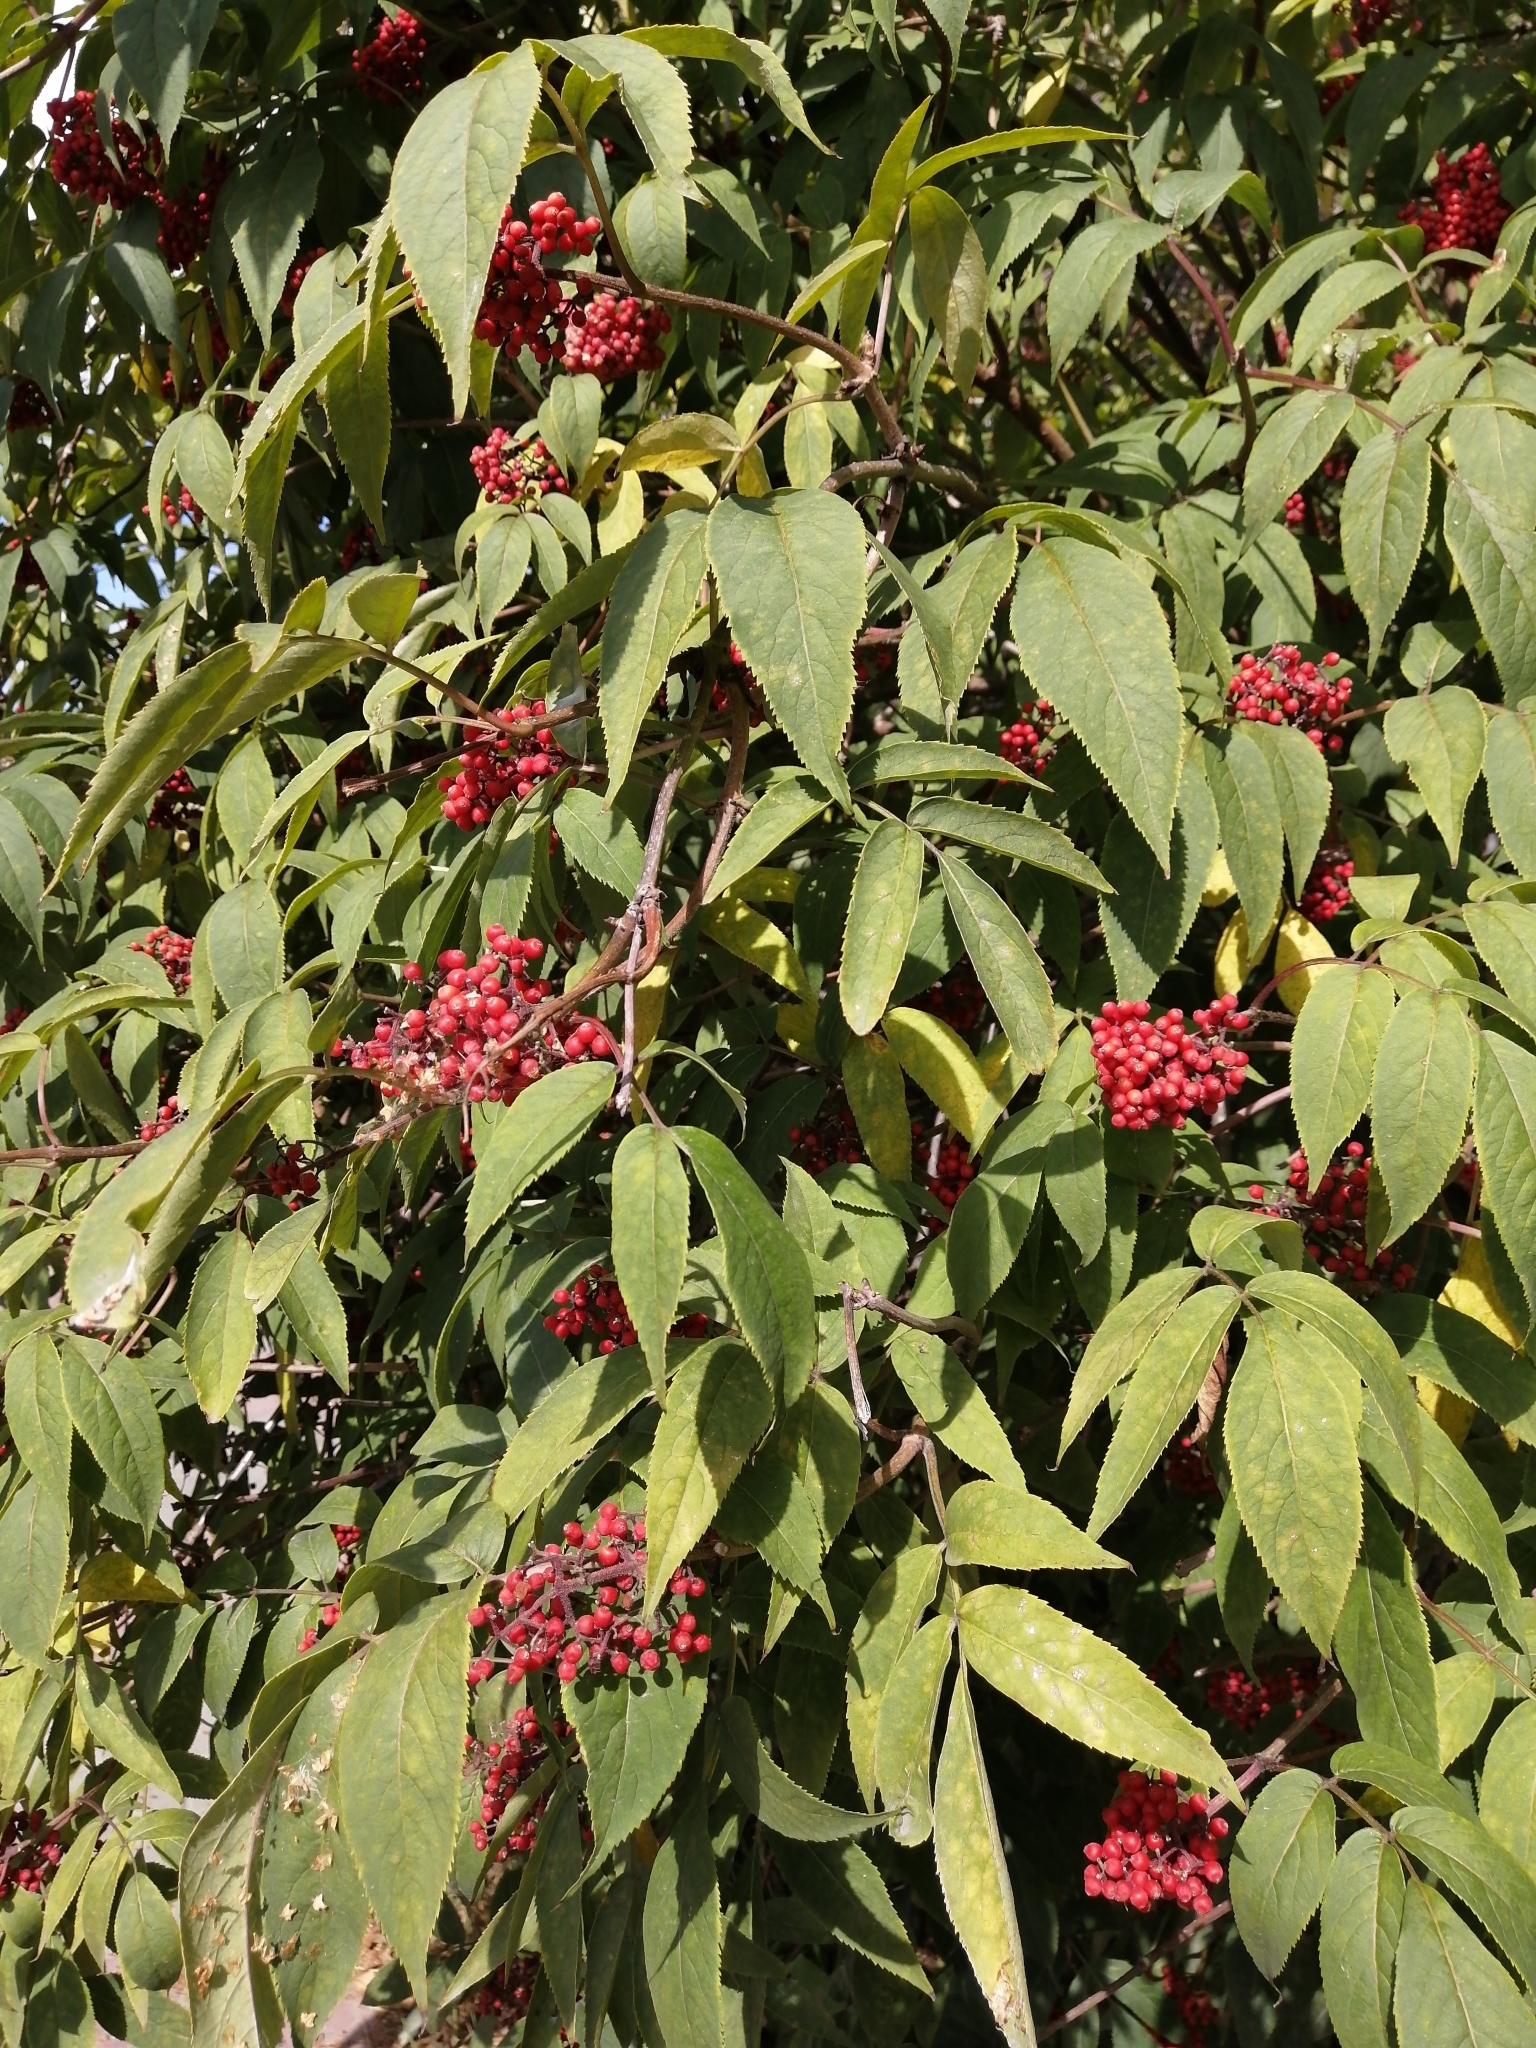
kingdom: Plantae
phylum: Tracheophyta
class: Magnoliopsida
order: Dipsacales
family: Viburnaceae
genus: Sambucus
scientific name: Sambucus sibirica
